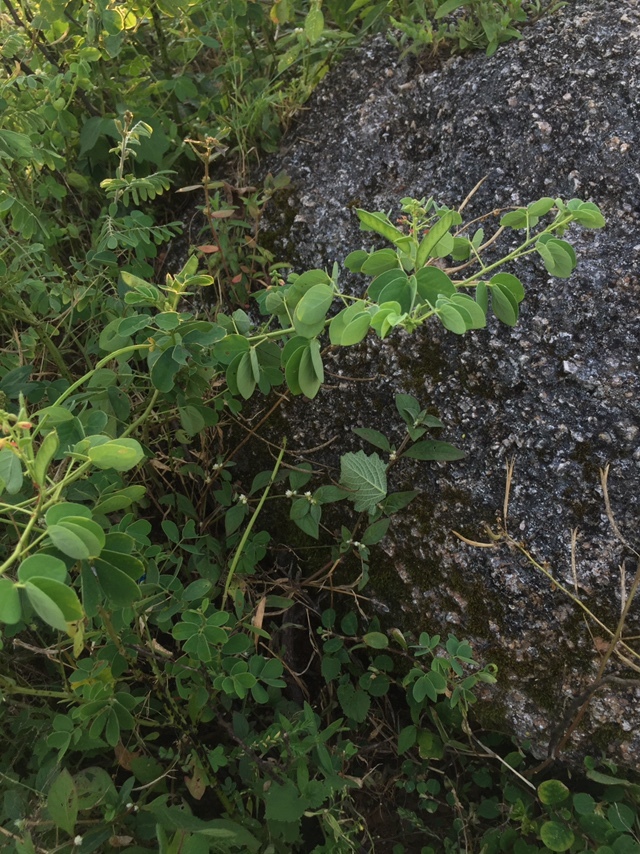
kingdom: Plantae
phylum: Tracheophyta
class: Magnoliopsida
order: Fabales
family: Fabaceae
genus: Chamaecrista
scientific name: Chamaecrista absus
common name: Tropical sensitive pea
